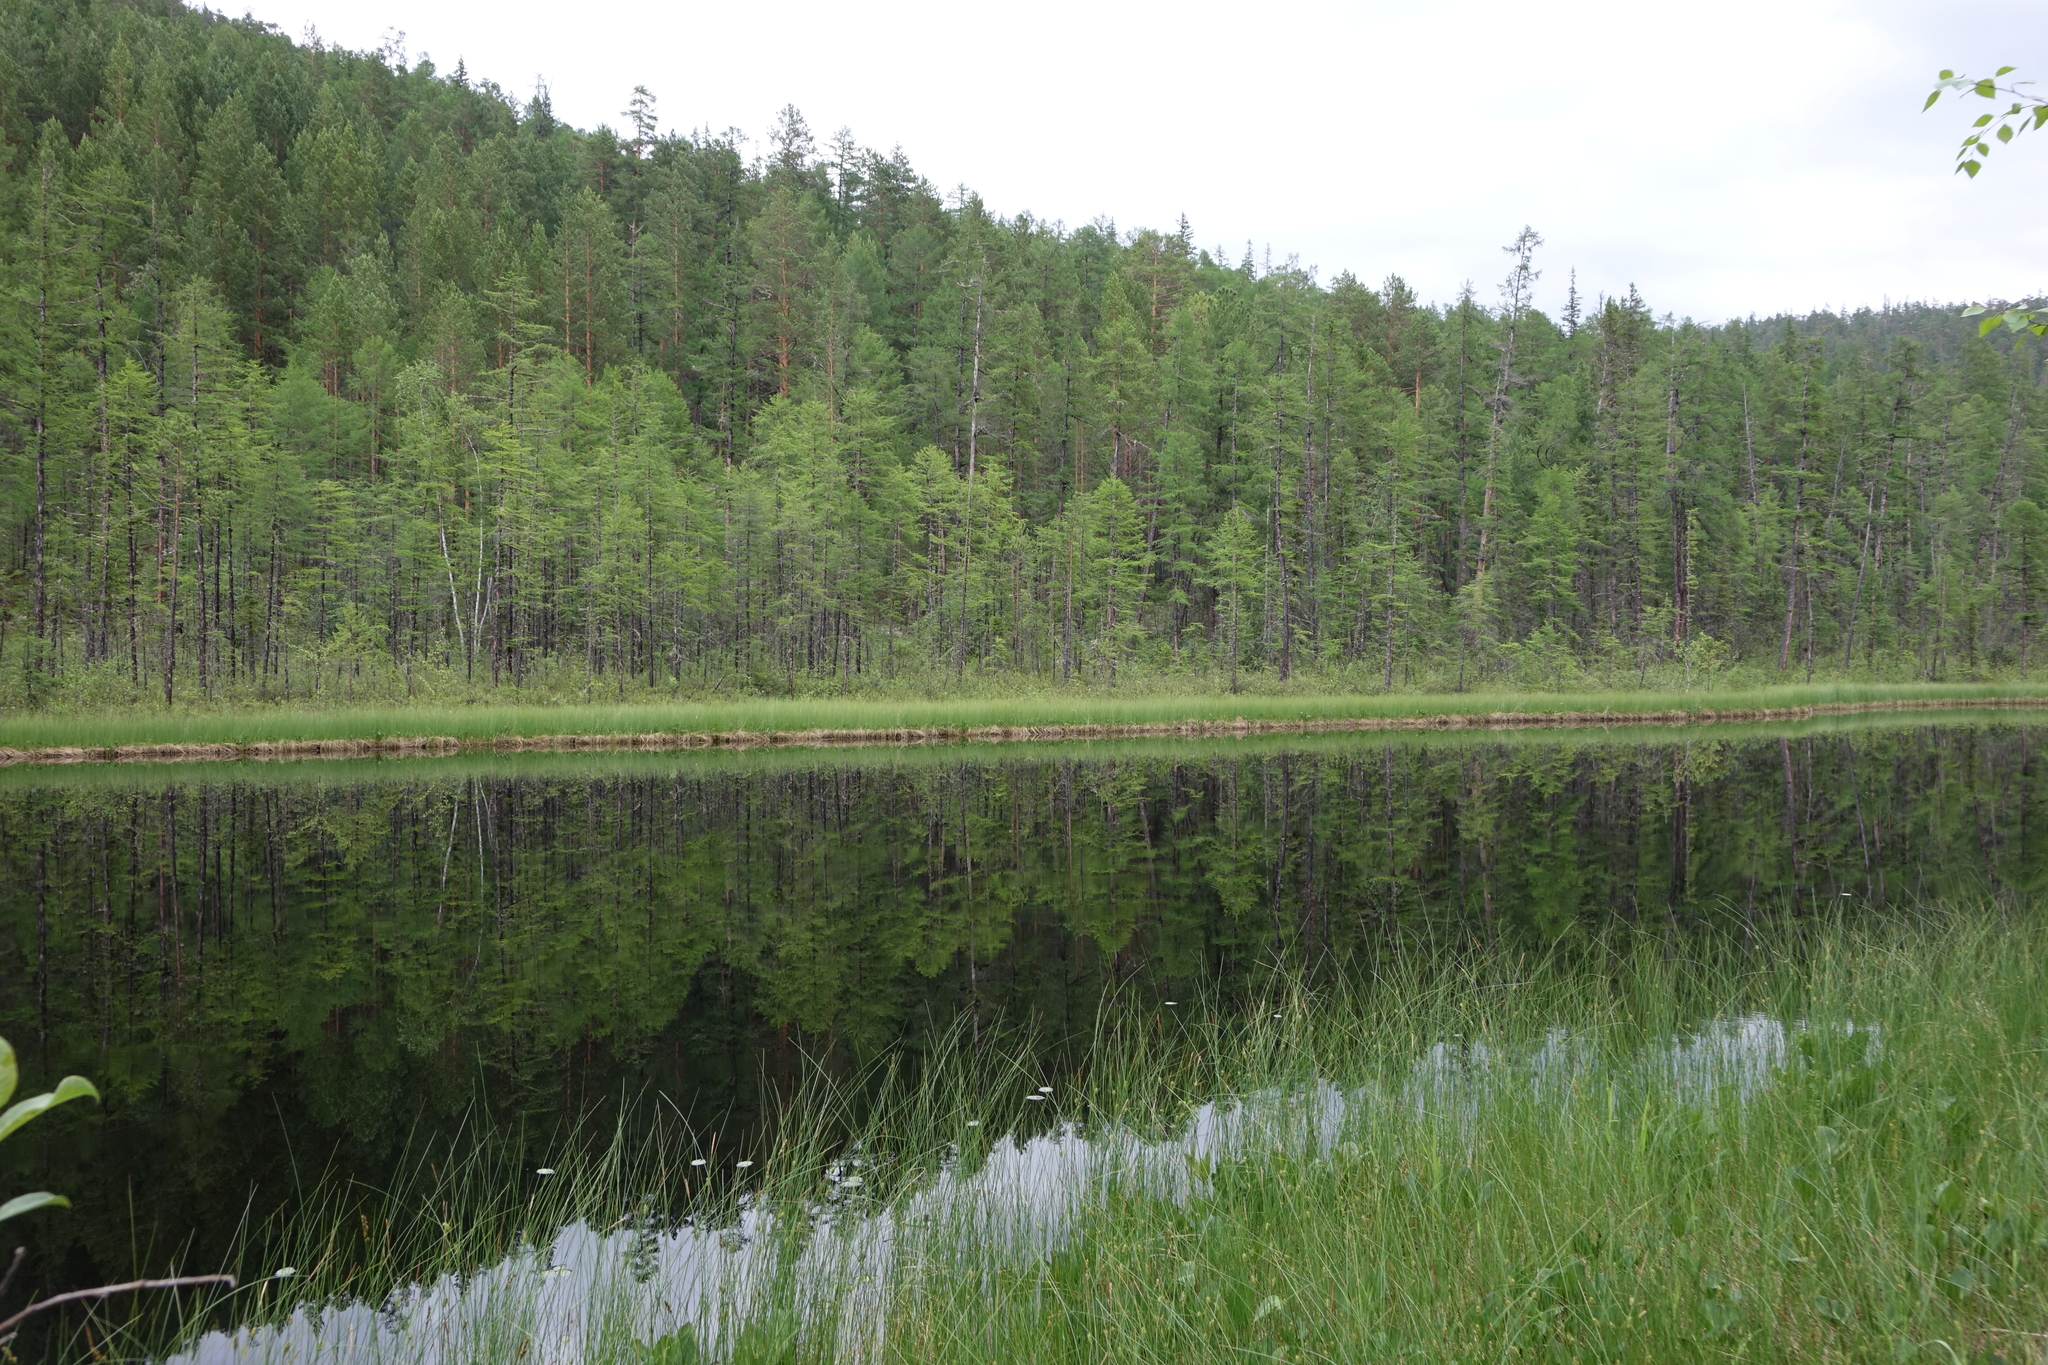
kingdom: Plantae
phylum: Tracheophyta
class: Pinopsida
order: Pinales
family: Pinaceae
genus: Pinus
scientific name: Pinus sylvestris
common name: Scots pine
